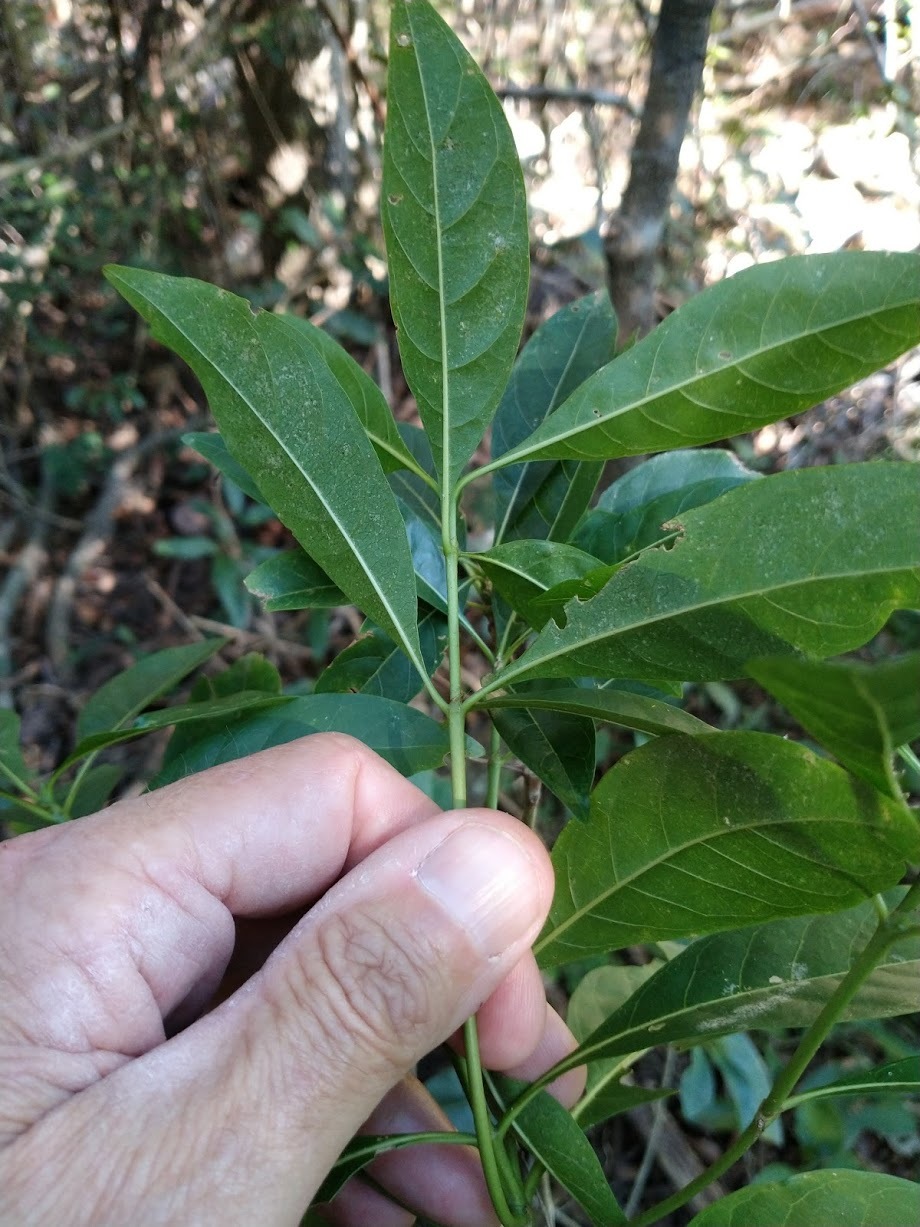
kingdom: Plantae
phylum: Tracheophyta
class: Magnoliopsida
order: Gentianales
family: Rubiaceae
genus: Pavetta
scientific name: Pavetta australiensis
